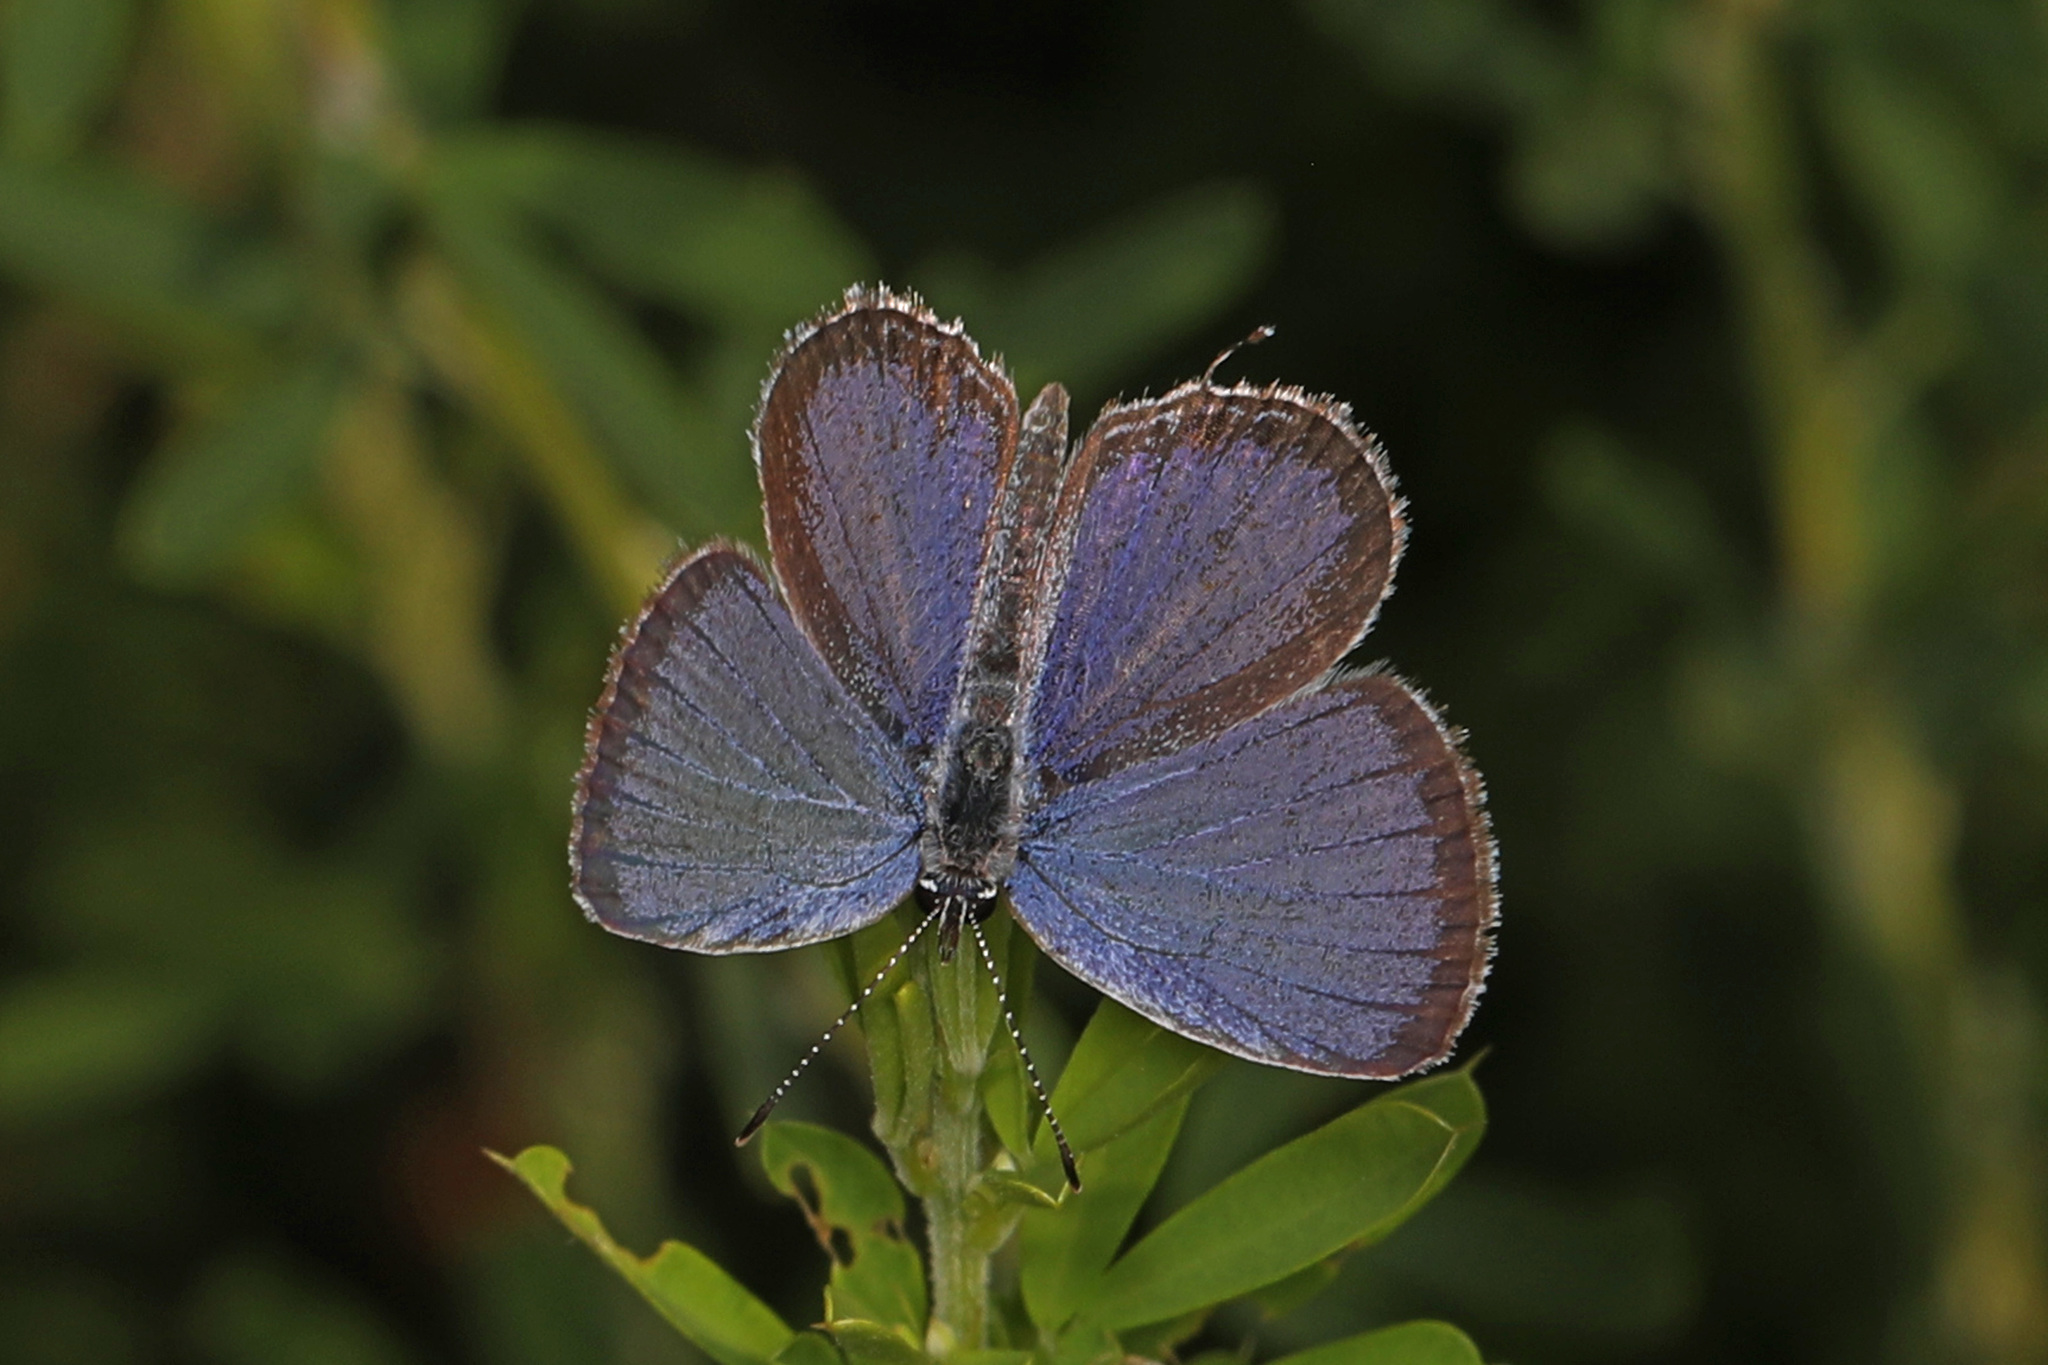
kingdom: Animalia
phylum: Arthropoda
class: Insecta
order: Lepidoptera
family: Lycaenidae
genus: Elkalyce
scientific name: Elkalyce comyntas
